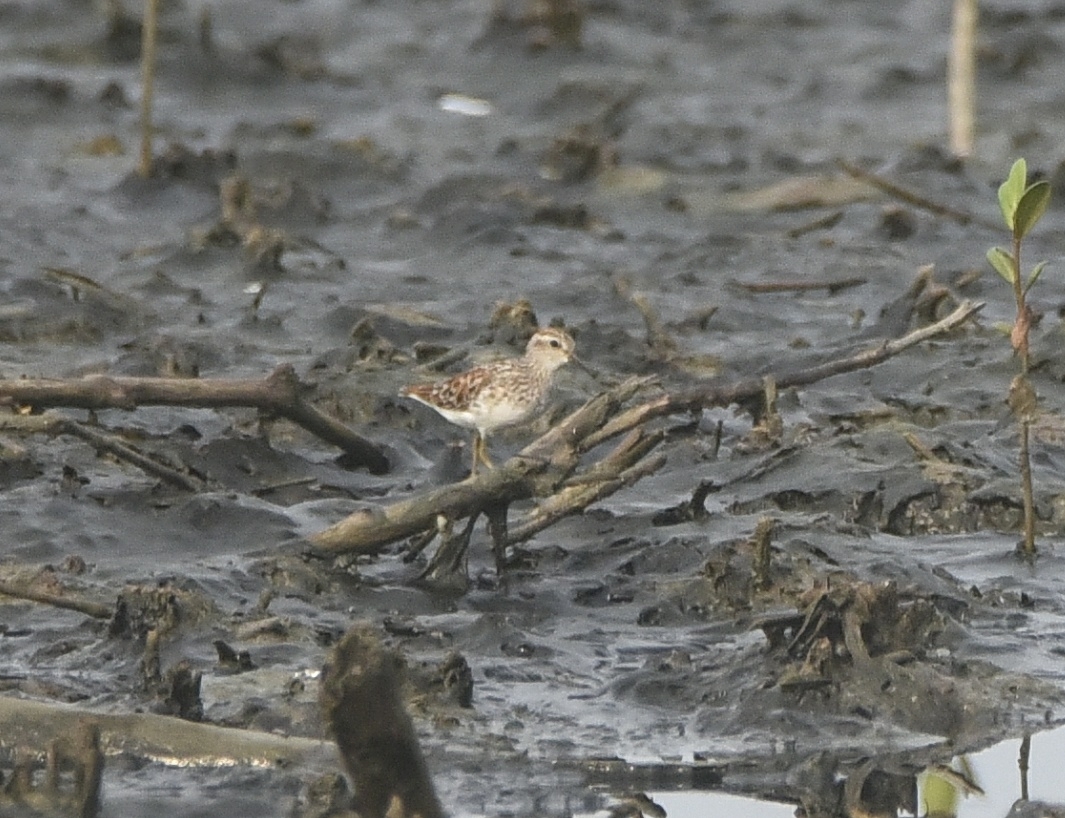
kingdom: Animalia
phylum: Chordata
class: Aves
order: Charadriiformes
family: Scolopacidae
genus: Calidris
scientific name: Calidris subminuta
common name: Long-toed stint
